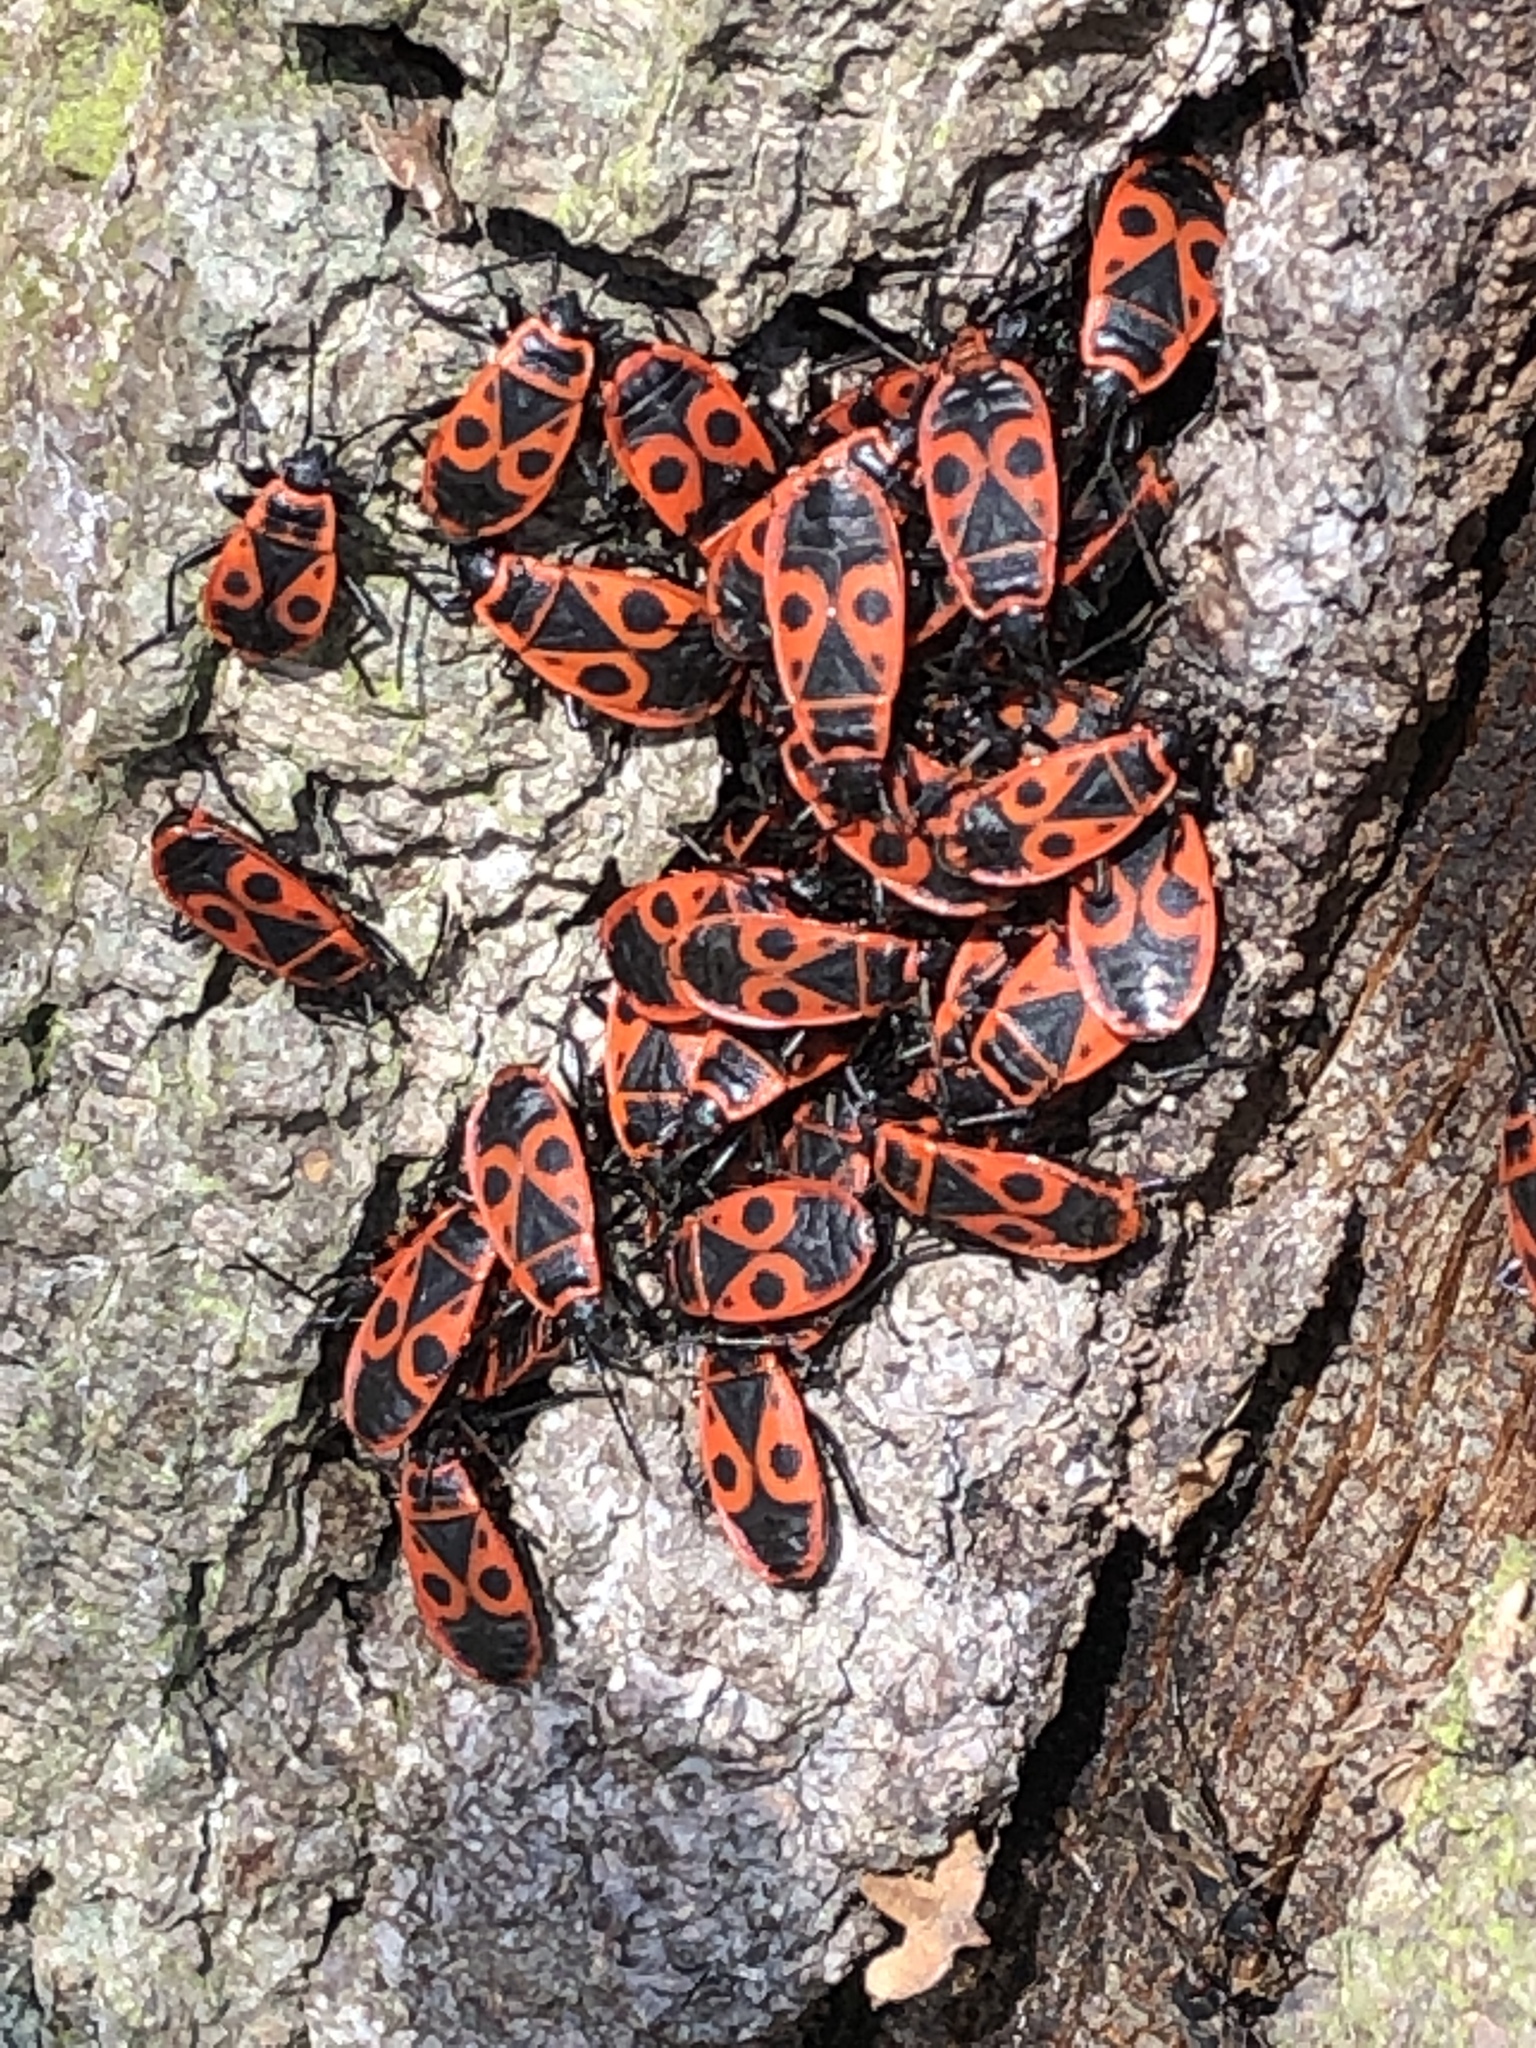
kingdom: Animalia
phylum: Arthropoda
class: Insecta
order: Hemiptera
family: Pyrrhocoridae
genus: Pyrrhocoris
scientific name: Pyrrhocoris apterus
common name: Firebug
